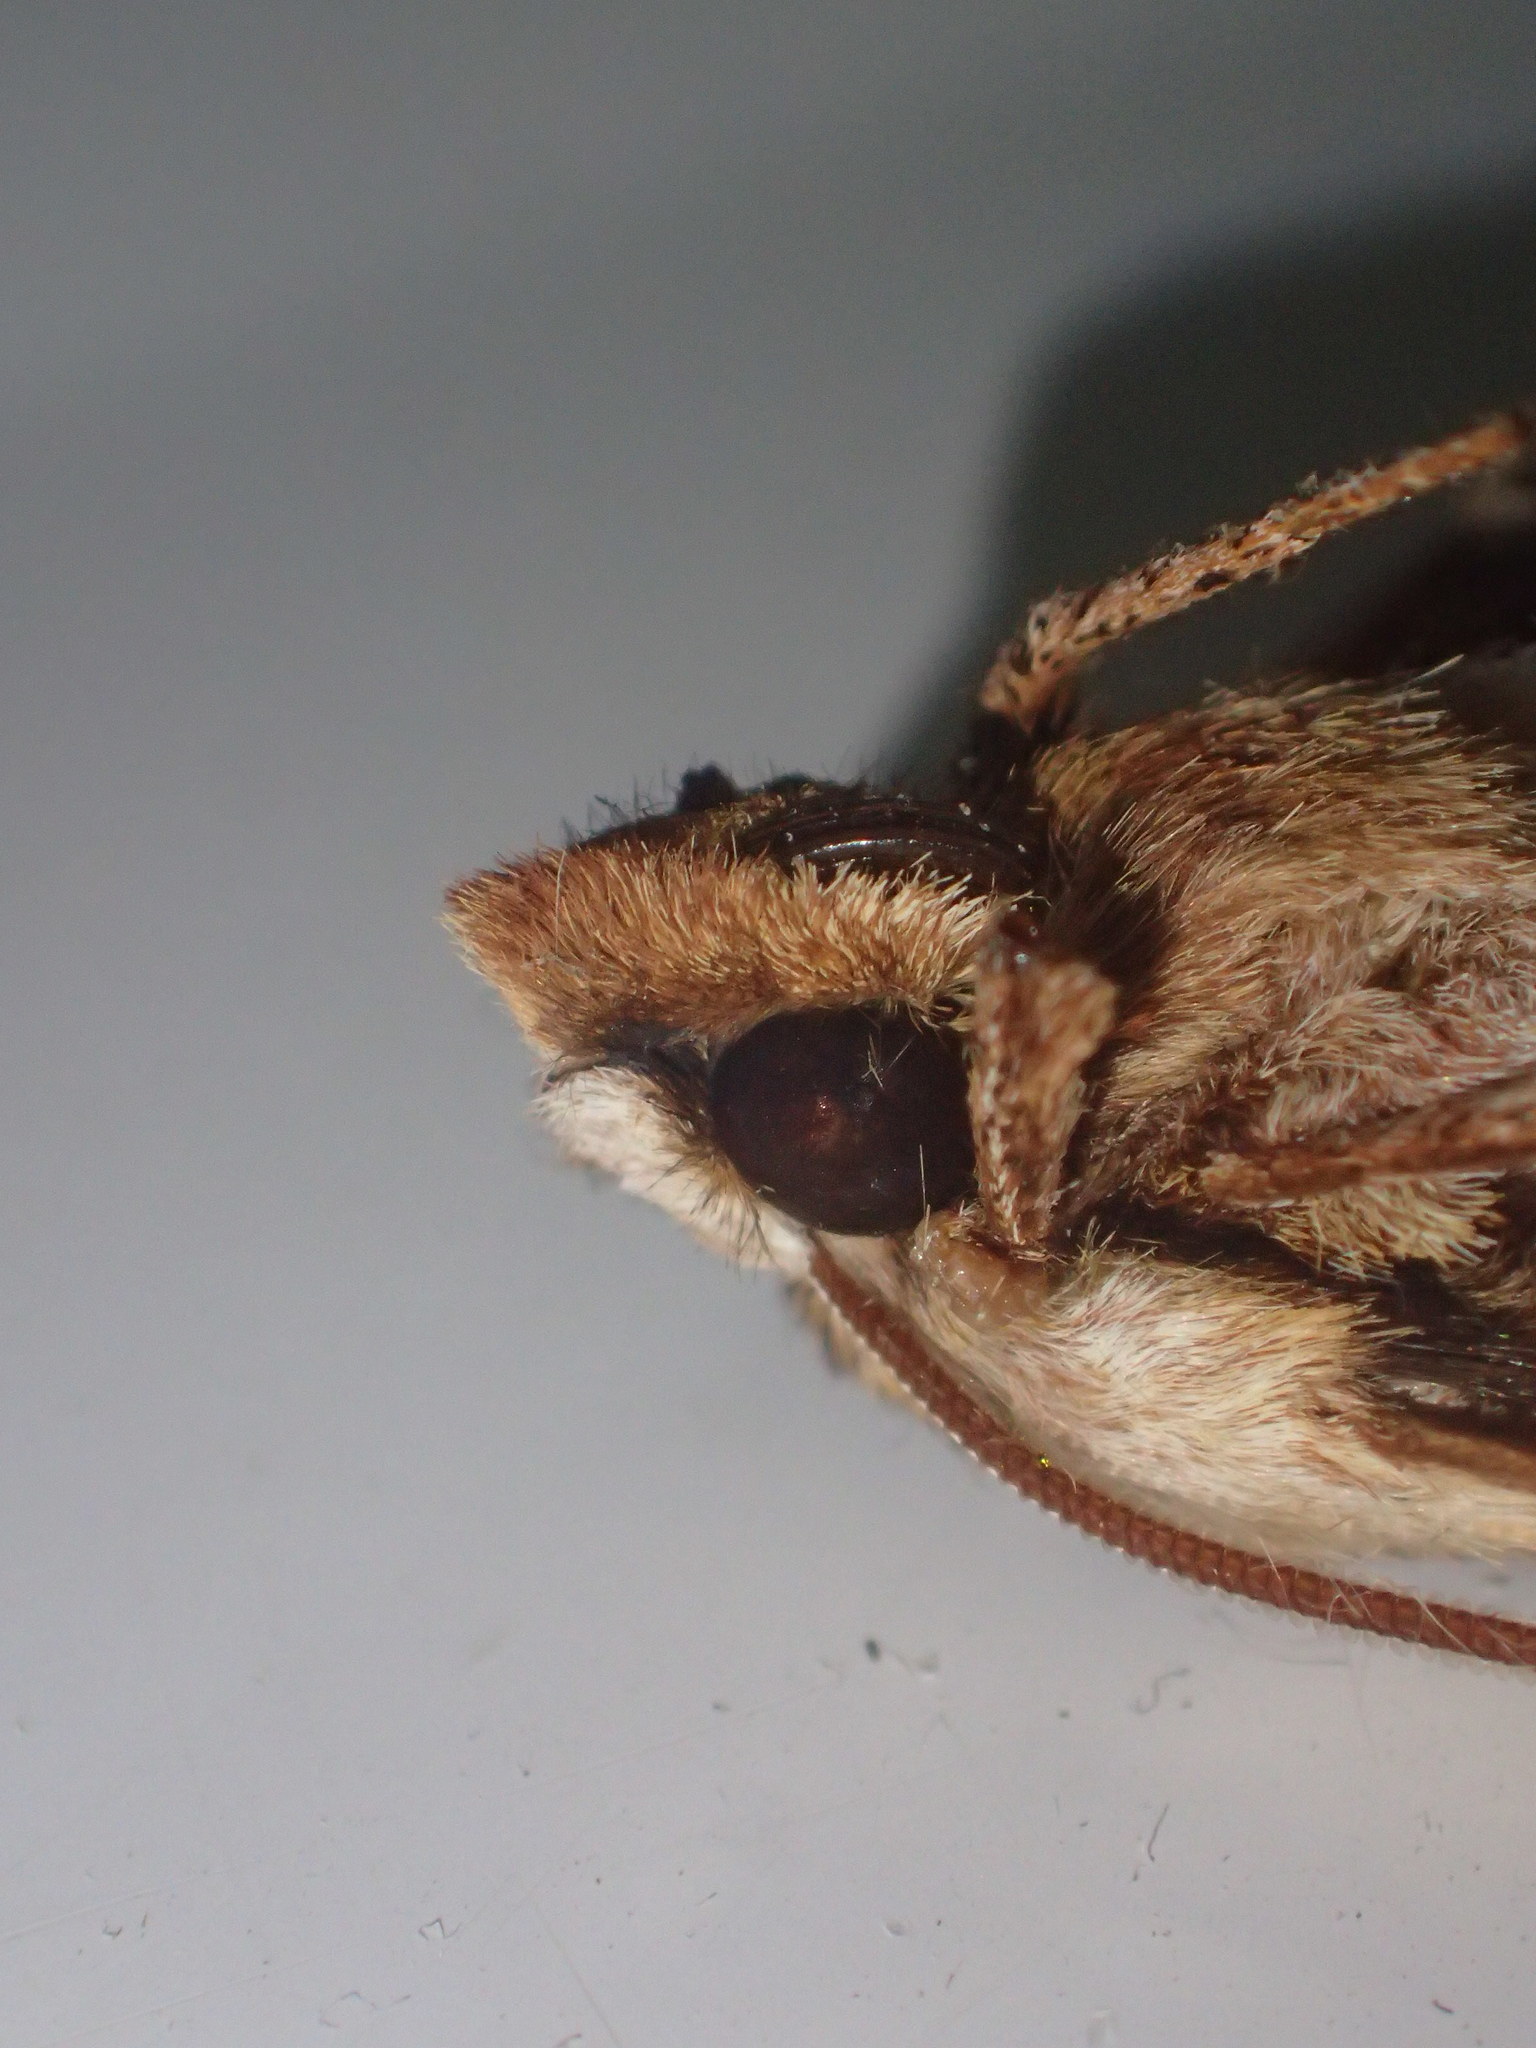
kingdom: Animalia
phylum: Arthropoda
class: Insecta
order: Lepidoptera
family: Sphingidae
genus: Sphinx
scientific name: Sphinx kalmiae
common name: Laurel sphinx
